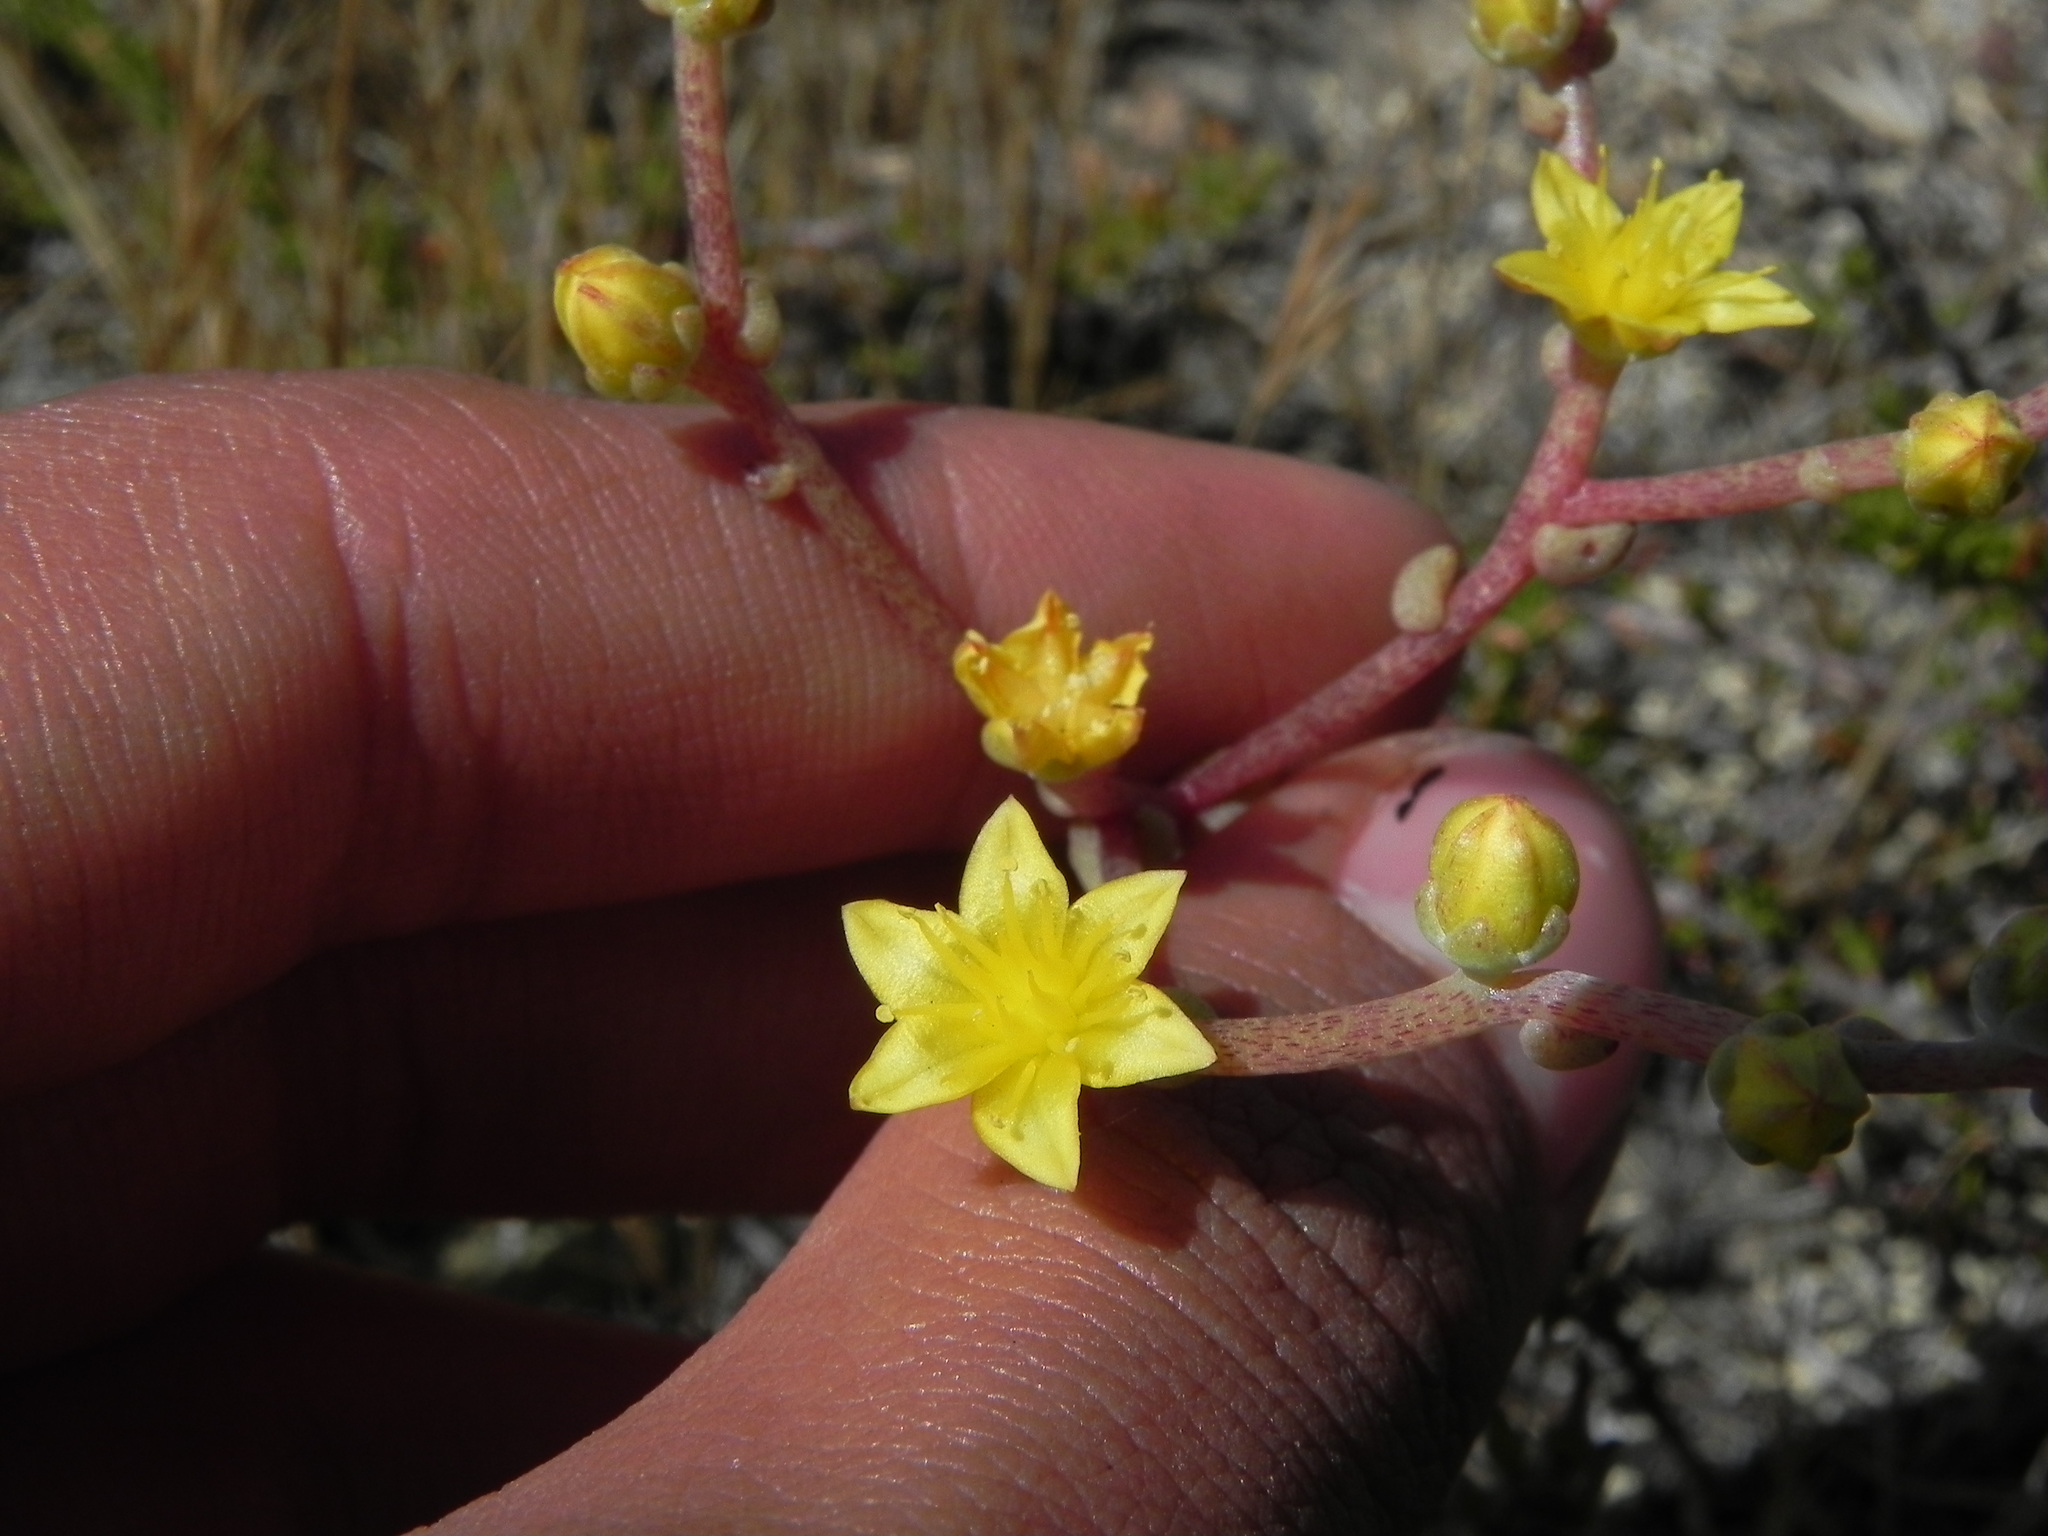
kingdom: Plantae
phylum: Tracheophyta
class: Magnoliopsida
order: Saxifragales
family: Crassulaceae
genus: Dudleya
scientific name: Dudleya variegata
